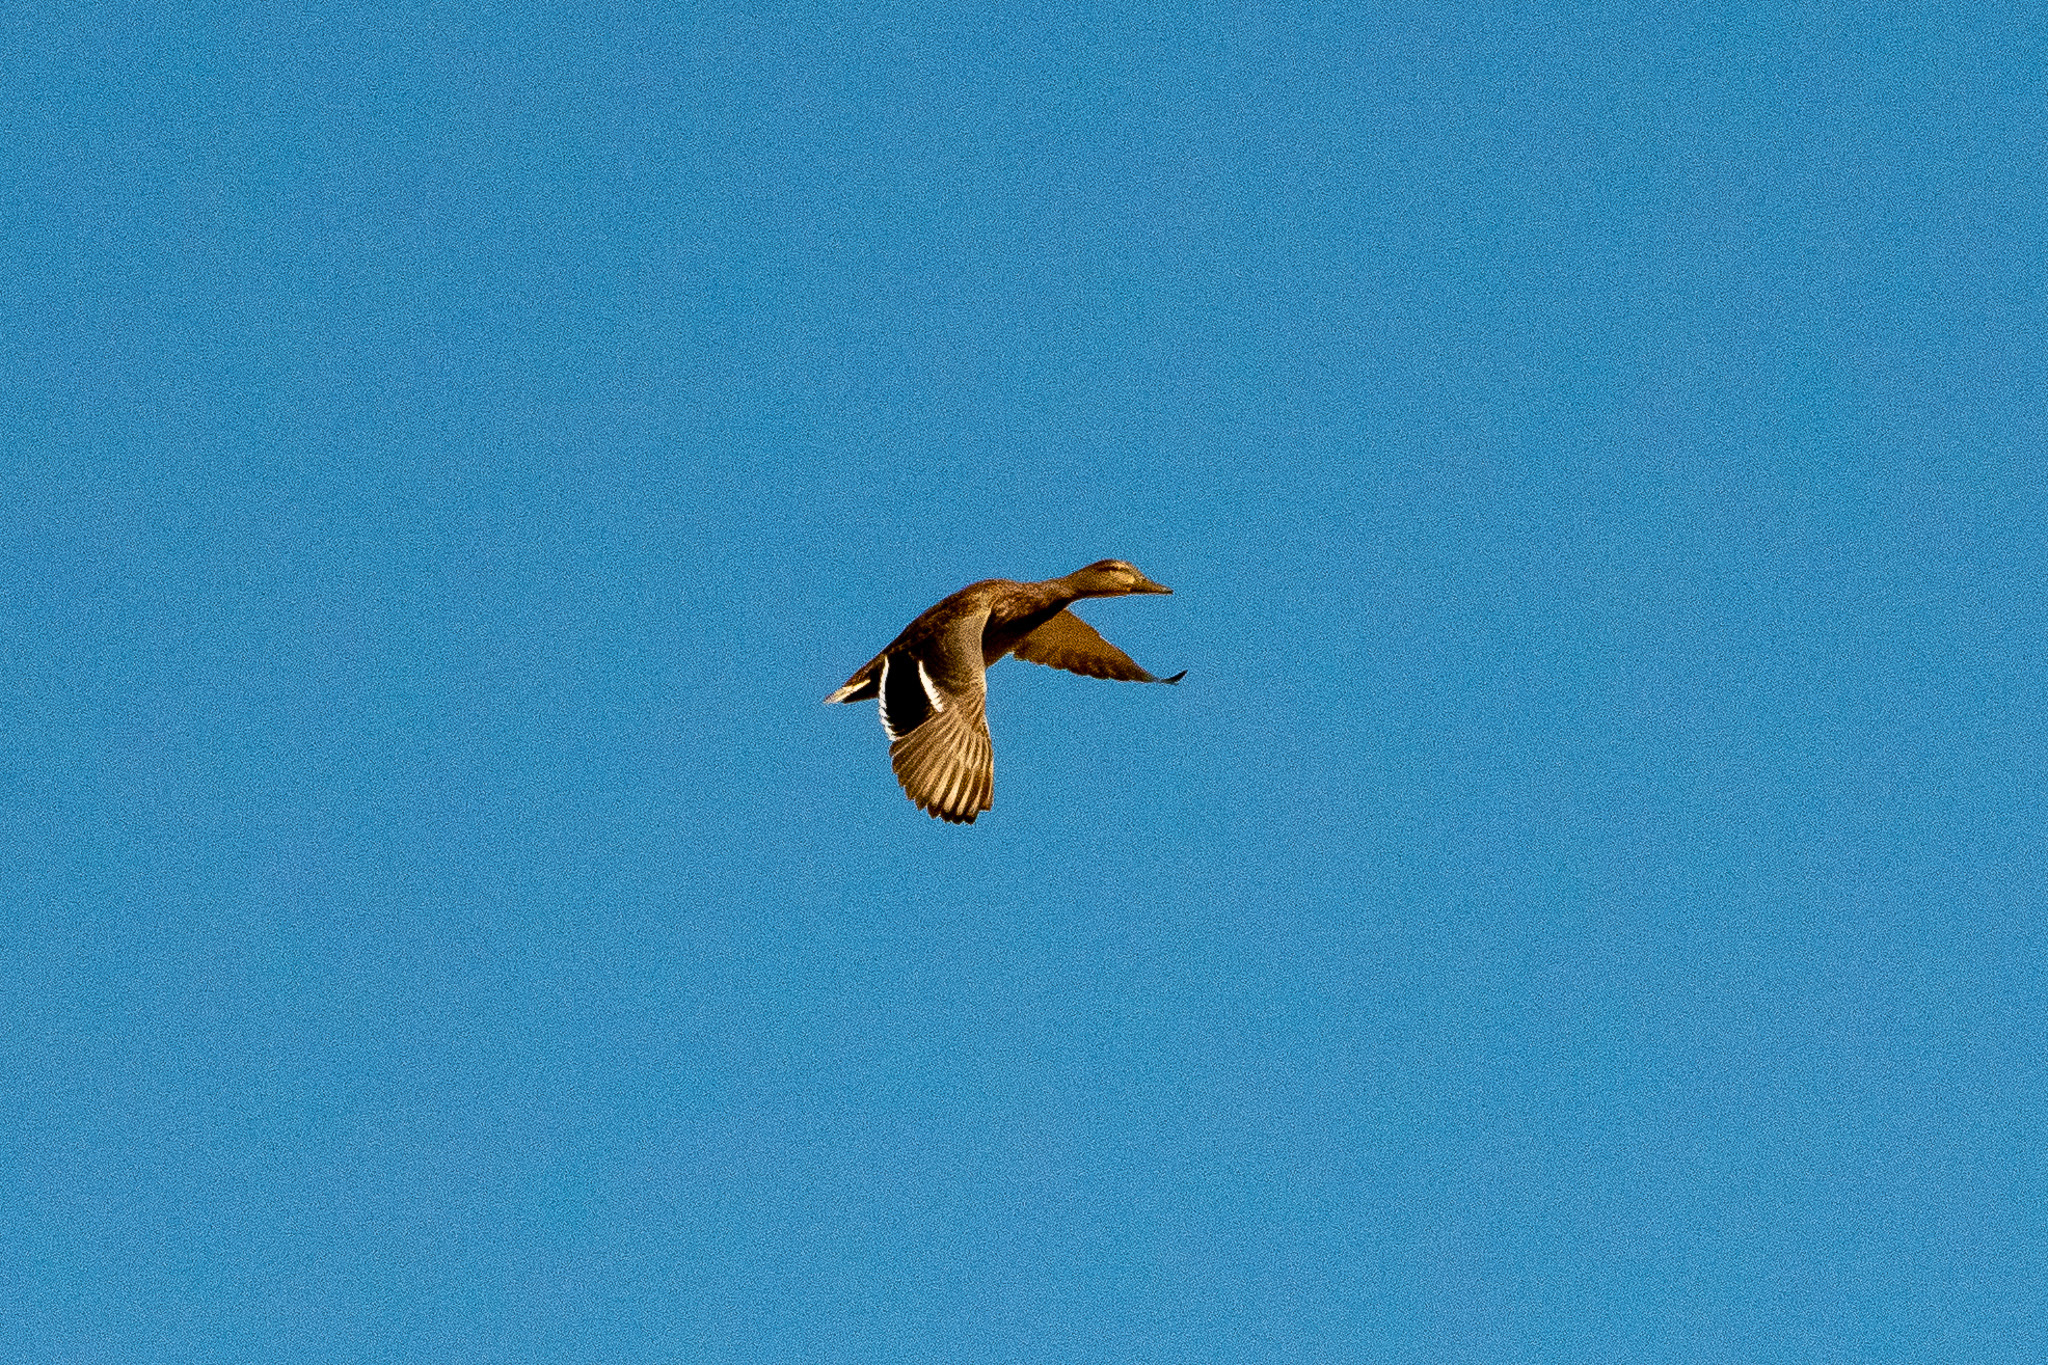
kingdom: Animalia
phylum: Chordata
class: Aves
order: Anseriformes
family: Anatidae
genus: Anas
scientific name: Anas platyrhynchos
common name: Mallard
